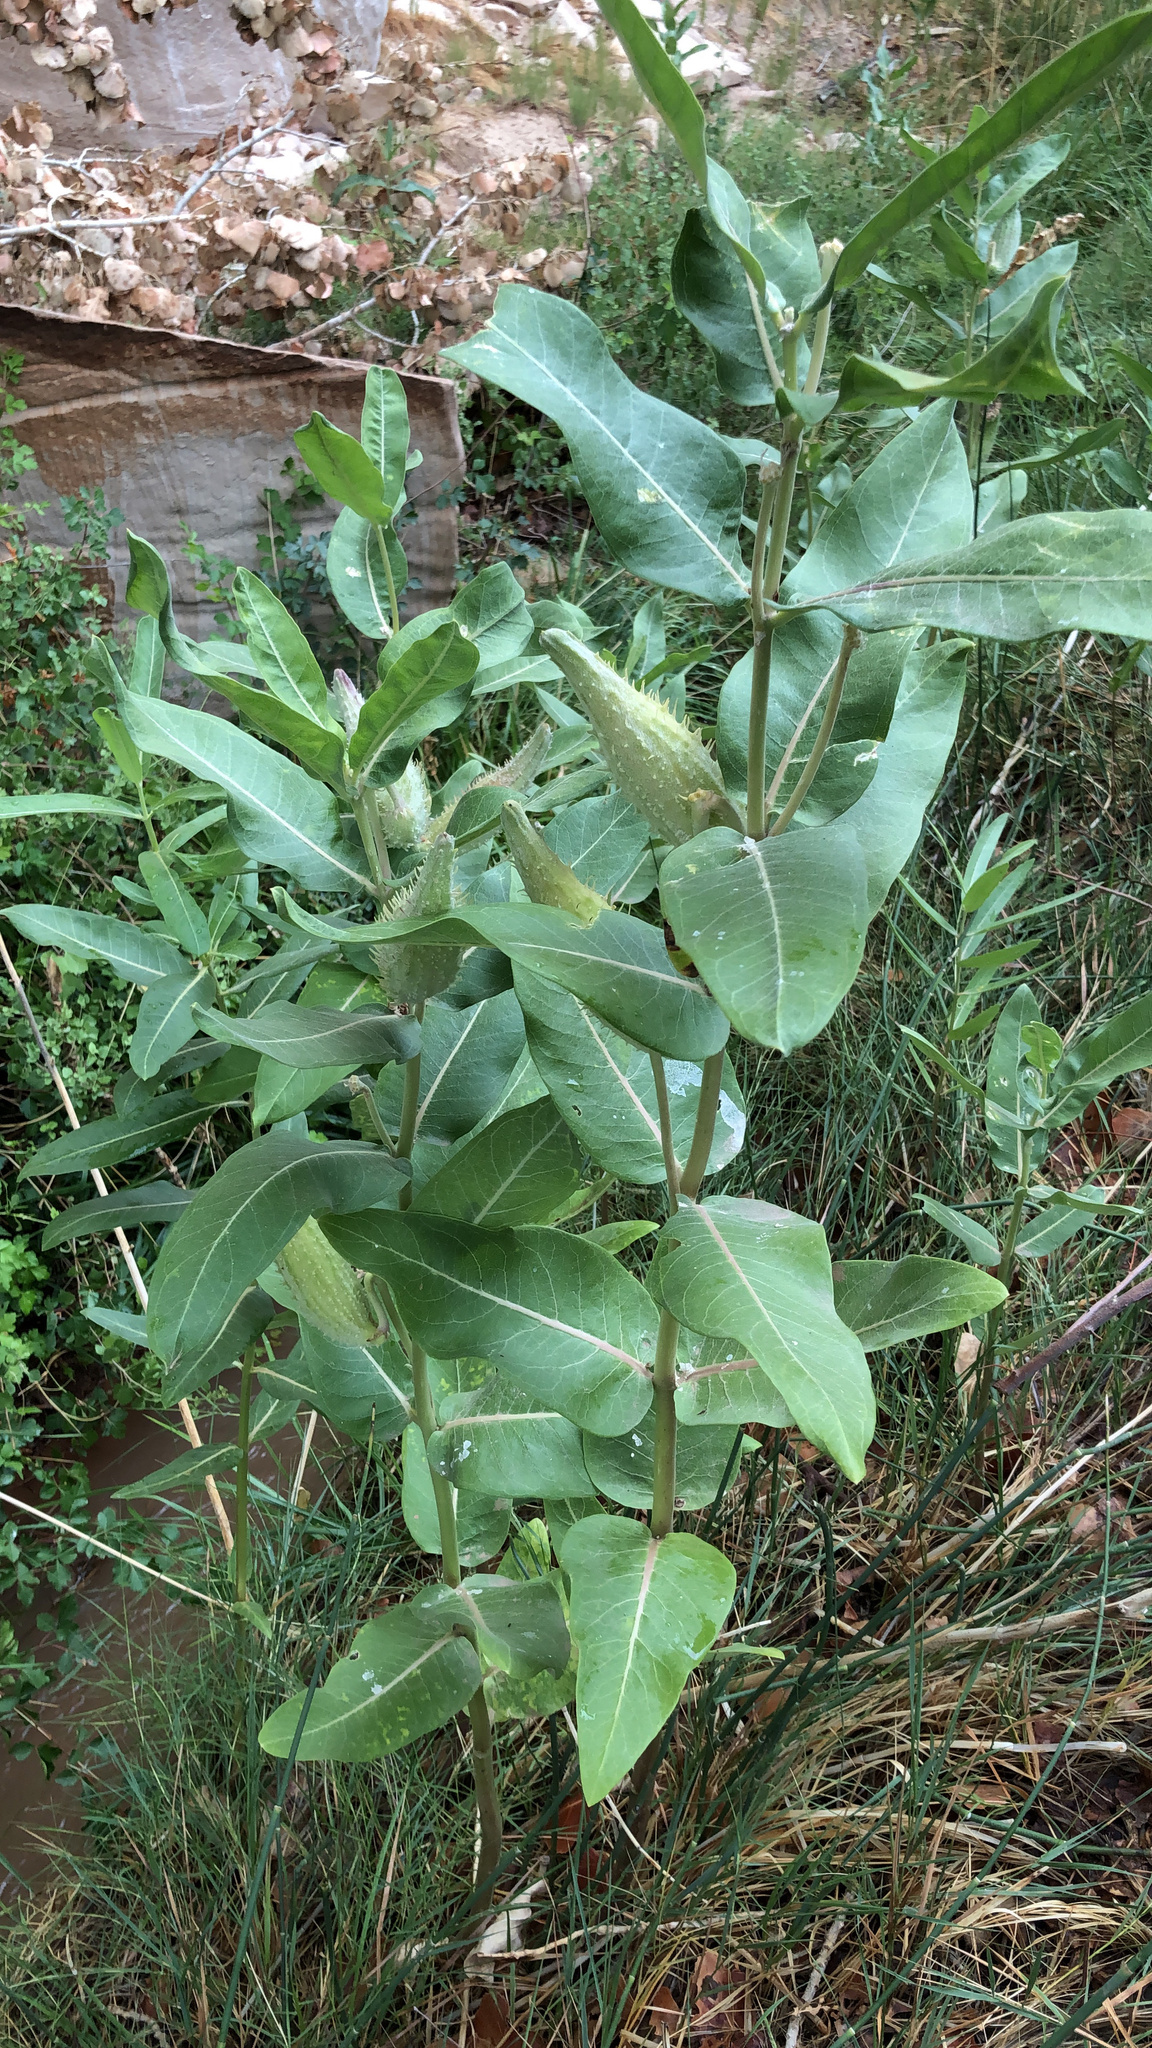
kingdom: Plantae
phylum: Tracheophyta
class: Magnoliopsida
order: Gentianales
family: Apocynaceae
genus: Asclepias
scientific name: Asclepias speciosa
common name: Showy milkweed
